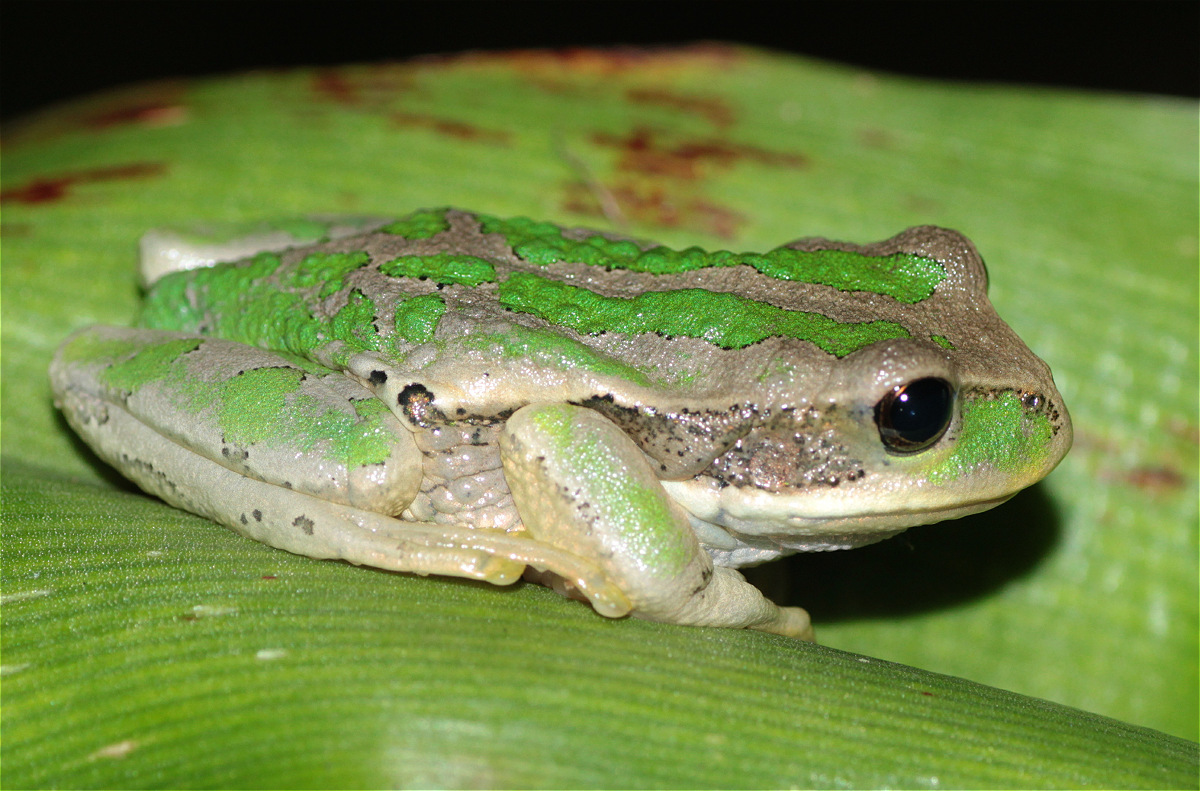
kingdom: Animalia
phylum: Chordata
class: Amphibia
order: Anura
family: Hemiphractidae
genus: Gastrotheca
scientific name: Gastrotheca cuencana
